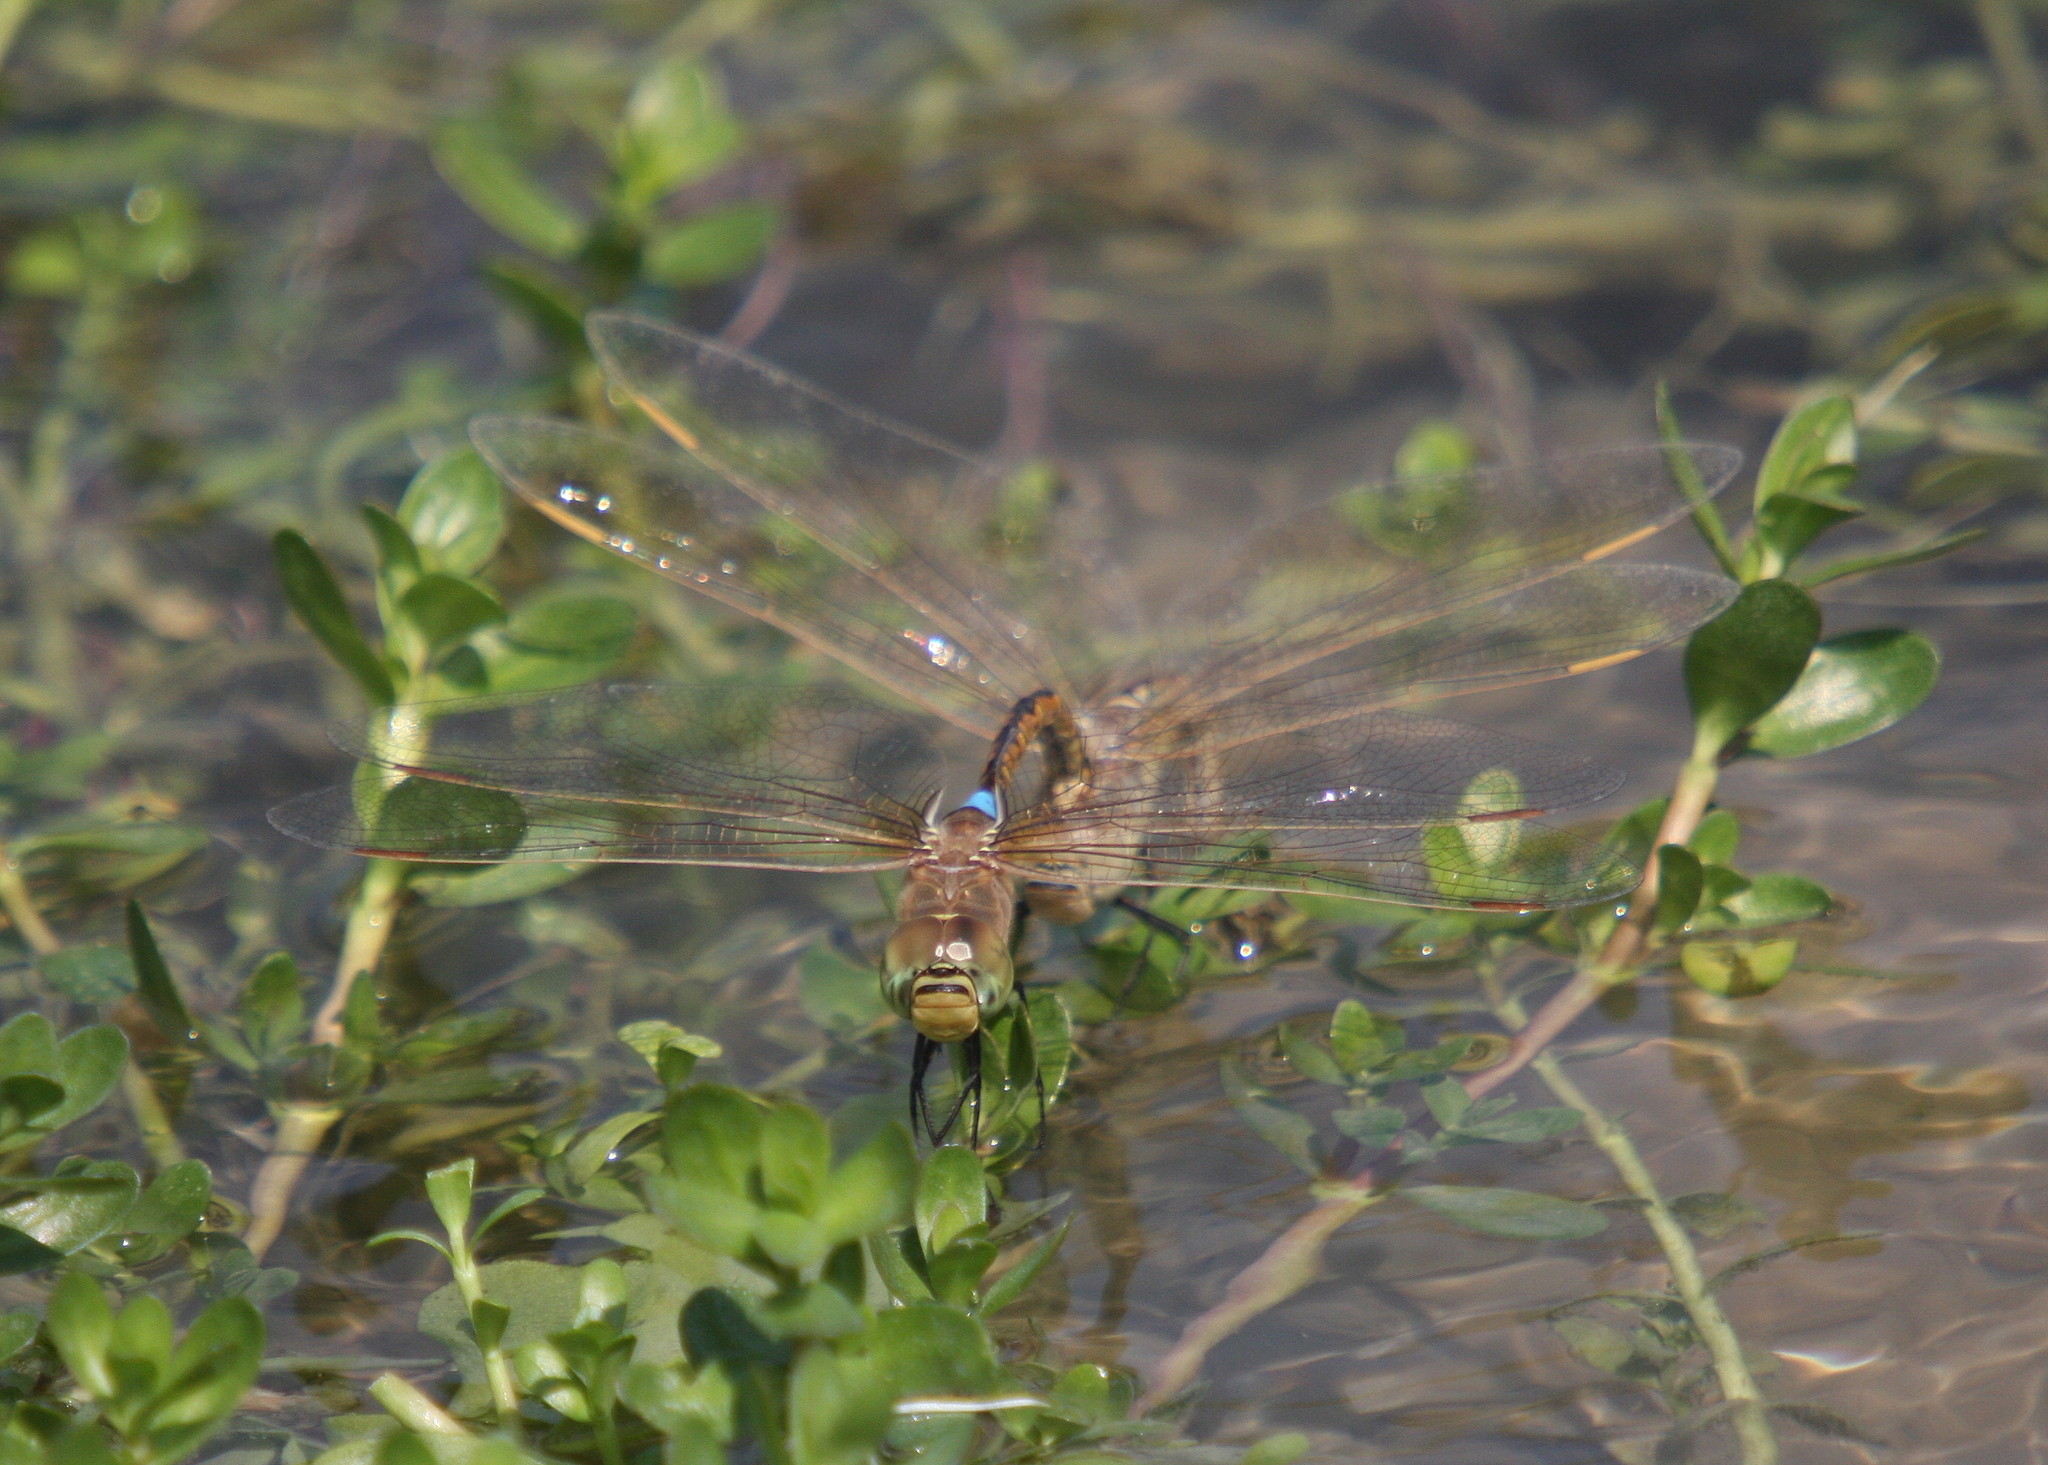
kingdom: Animalia
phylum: Arthropoda
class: Insecta
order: Odonata
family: Aeshnidae
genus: Anax
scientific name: Anax ephippiger
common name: Vagrant emperor
